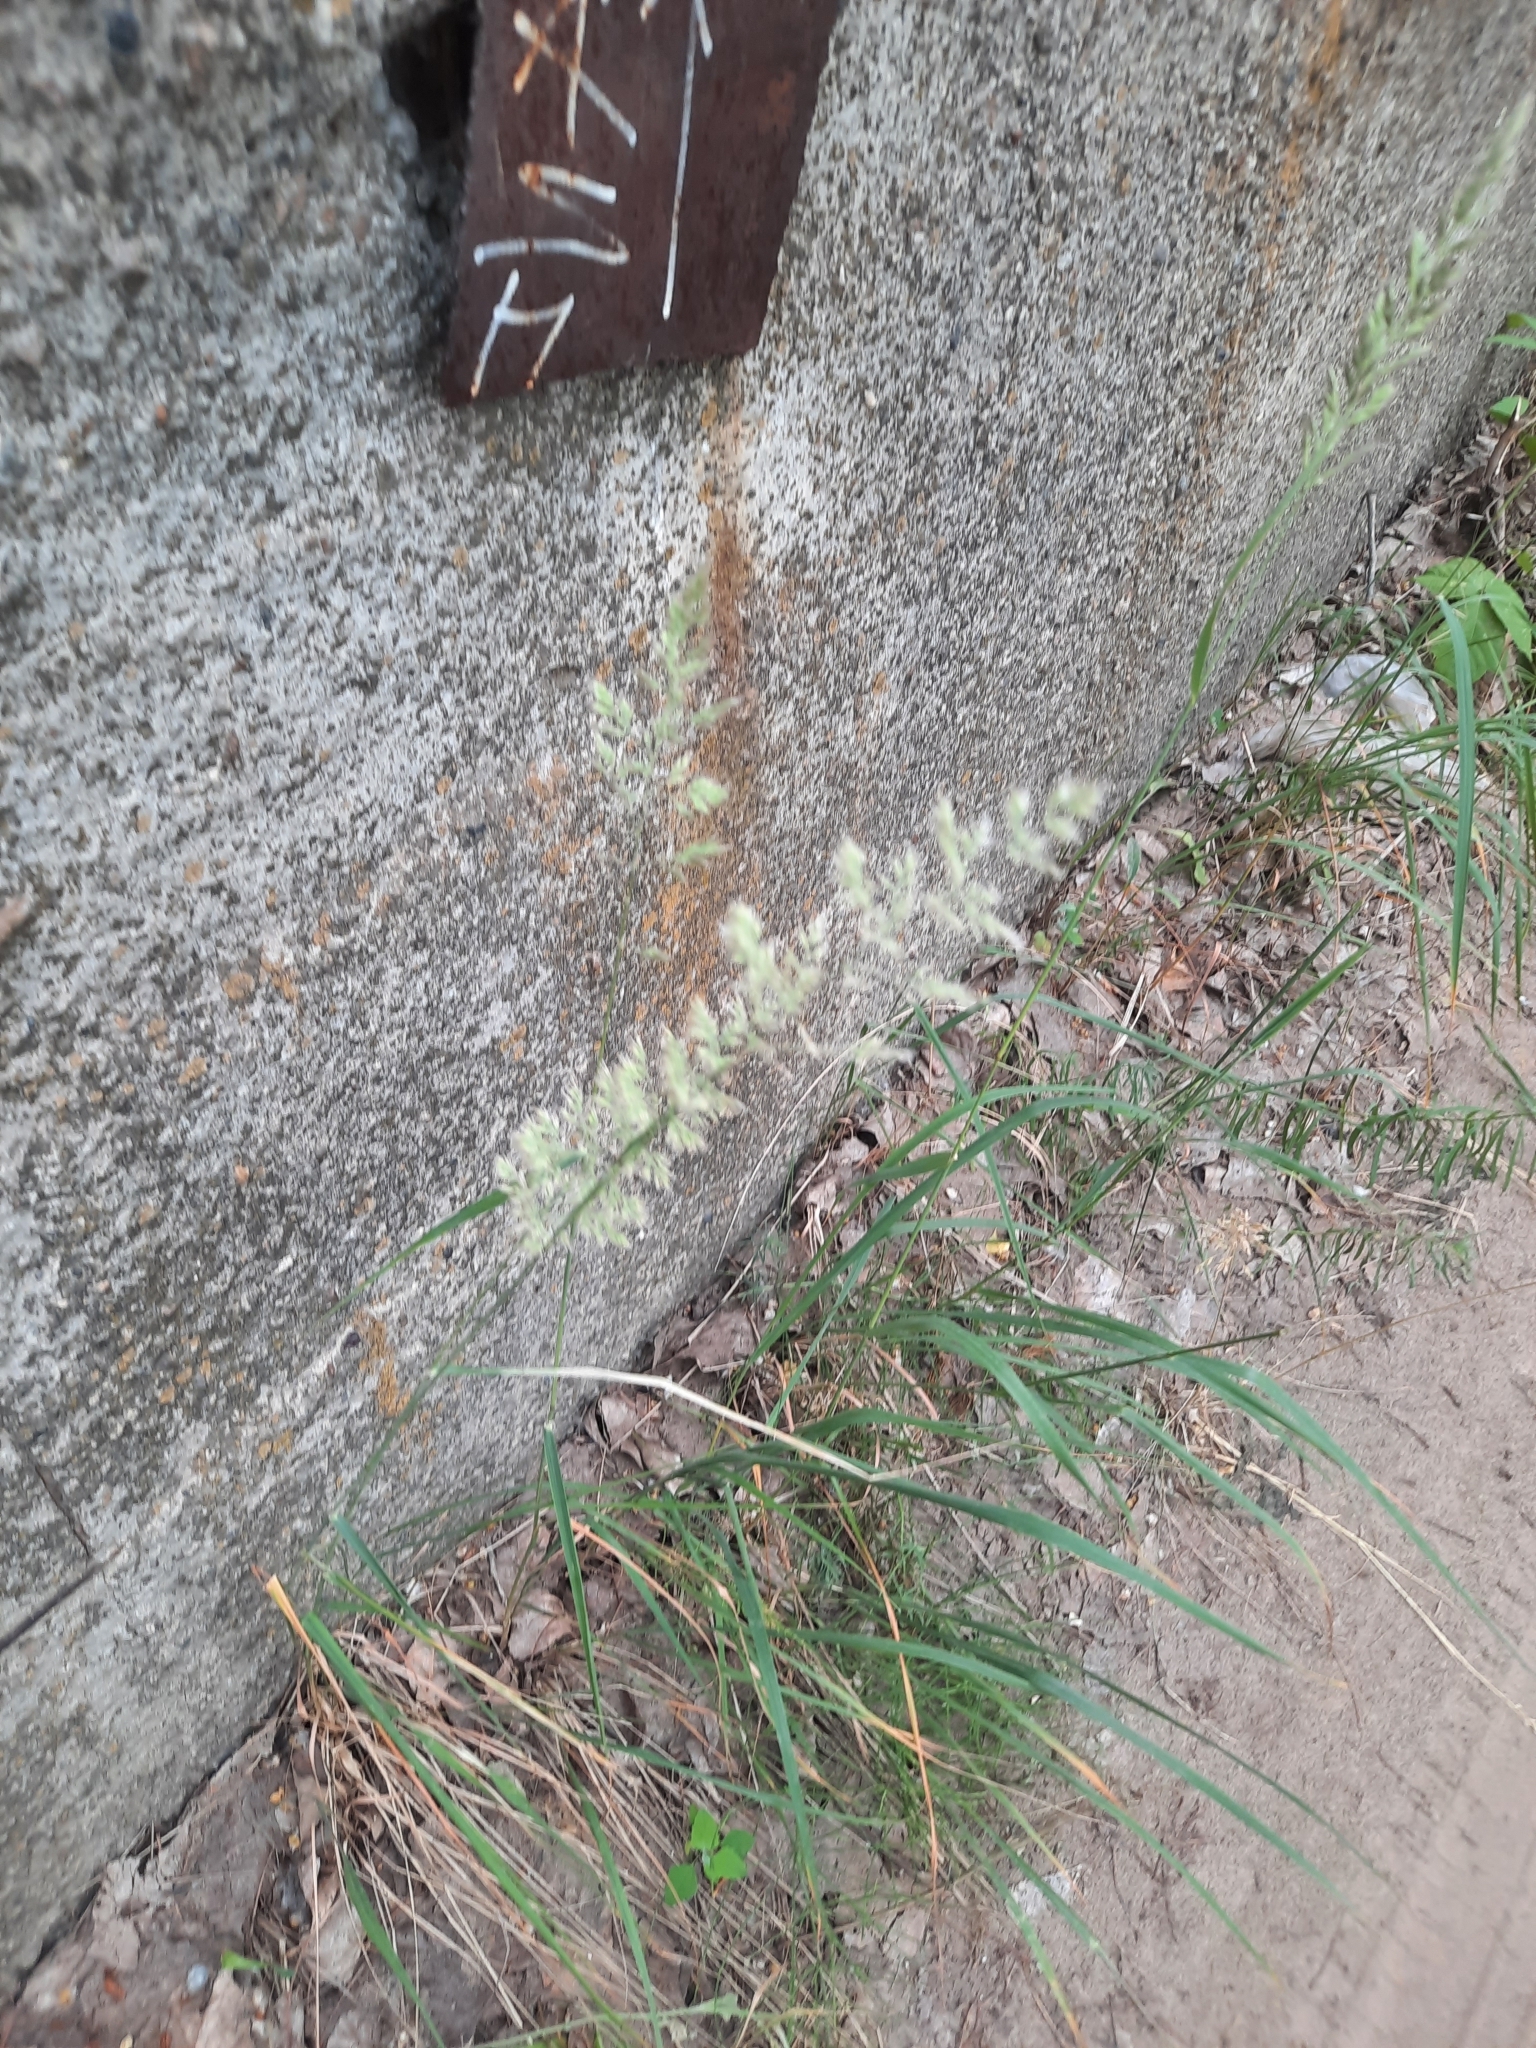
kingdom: Plantae
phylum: Tracheophyta
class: Liliopsida
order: Poales
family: Poaceae
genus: Calamagrostis
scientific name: Calamagrostis epigejos
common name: Wood small-reed
